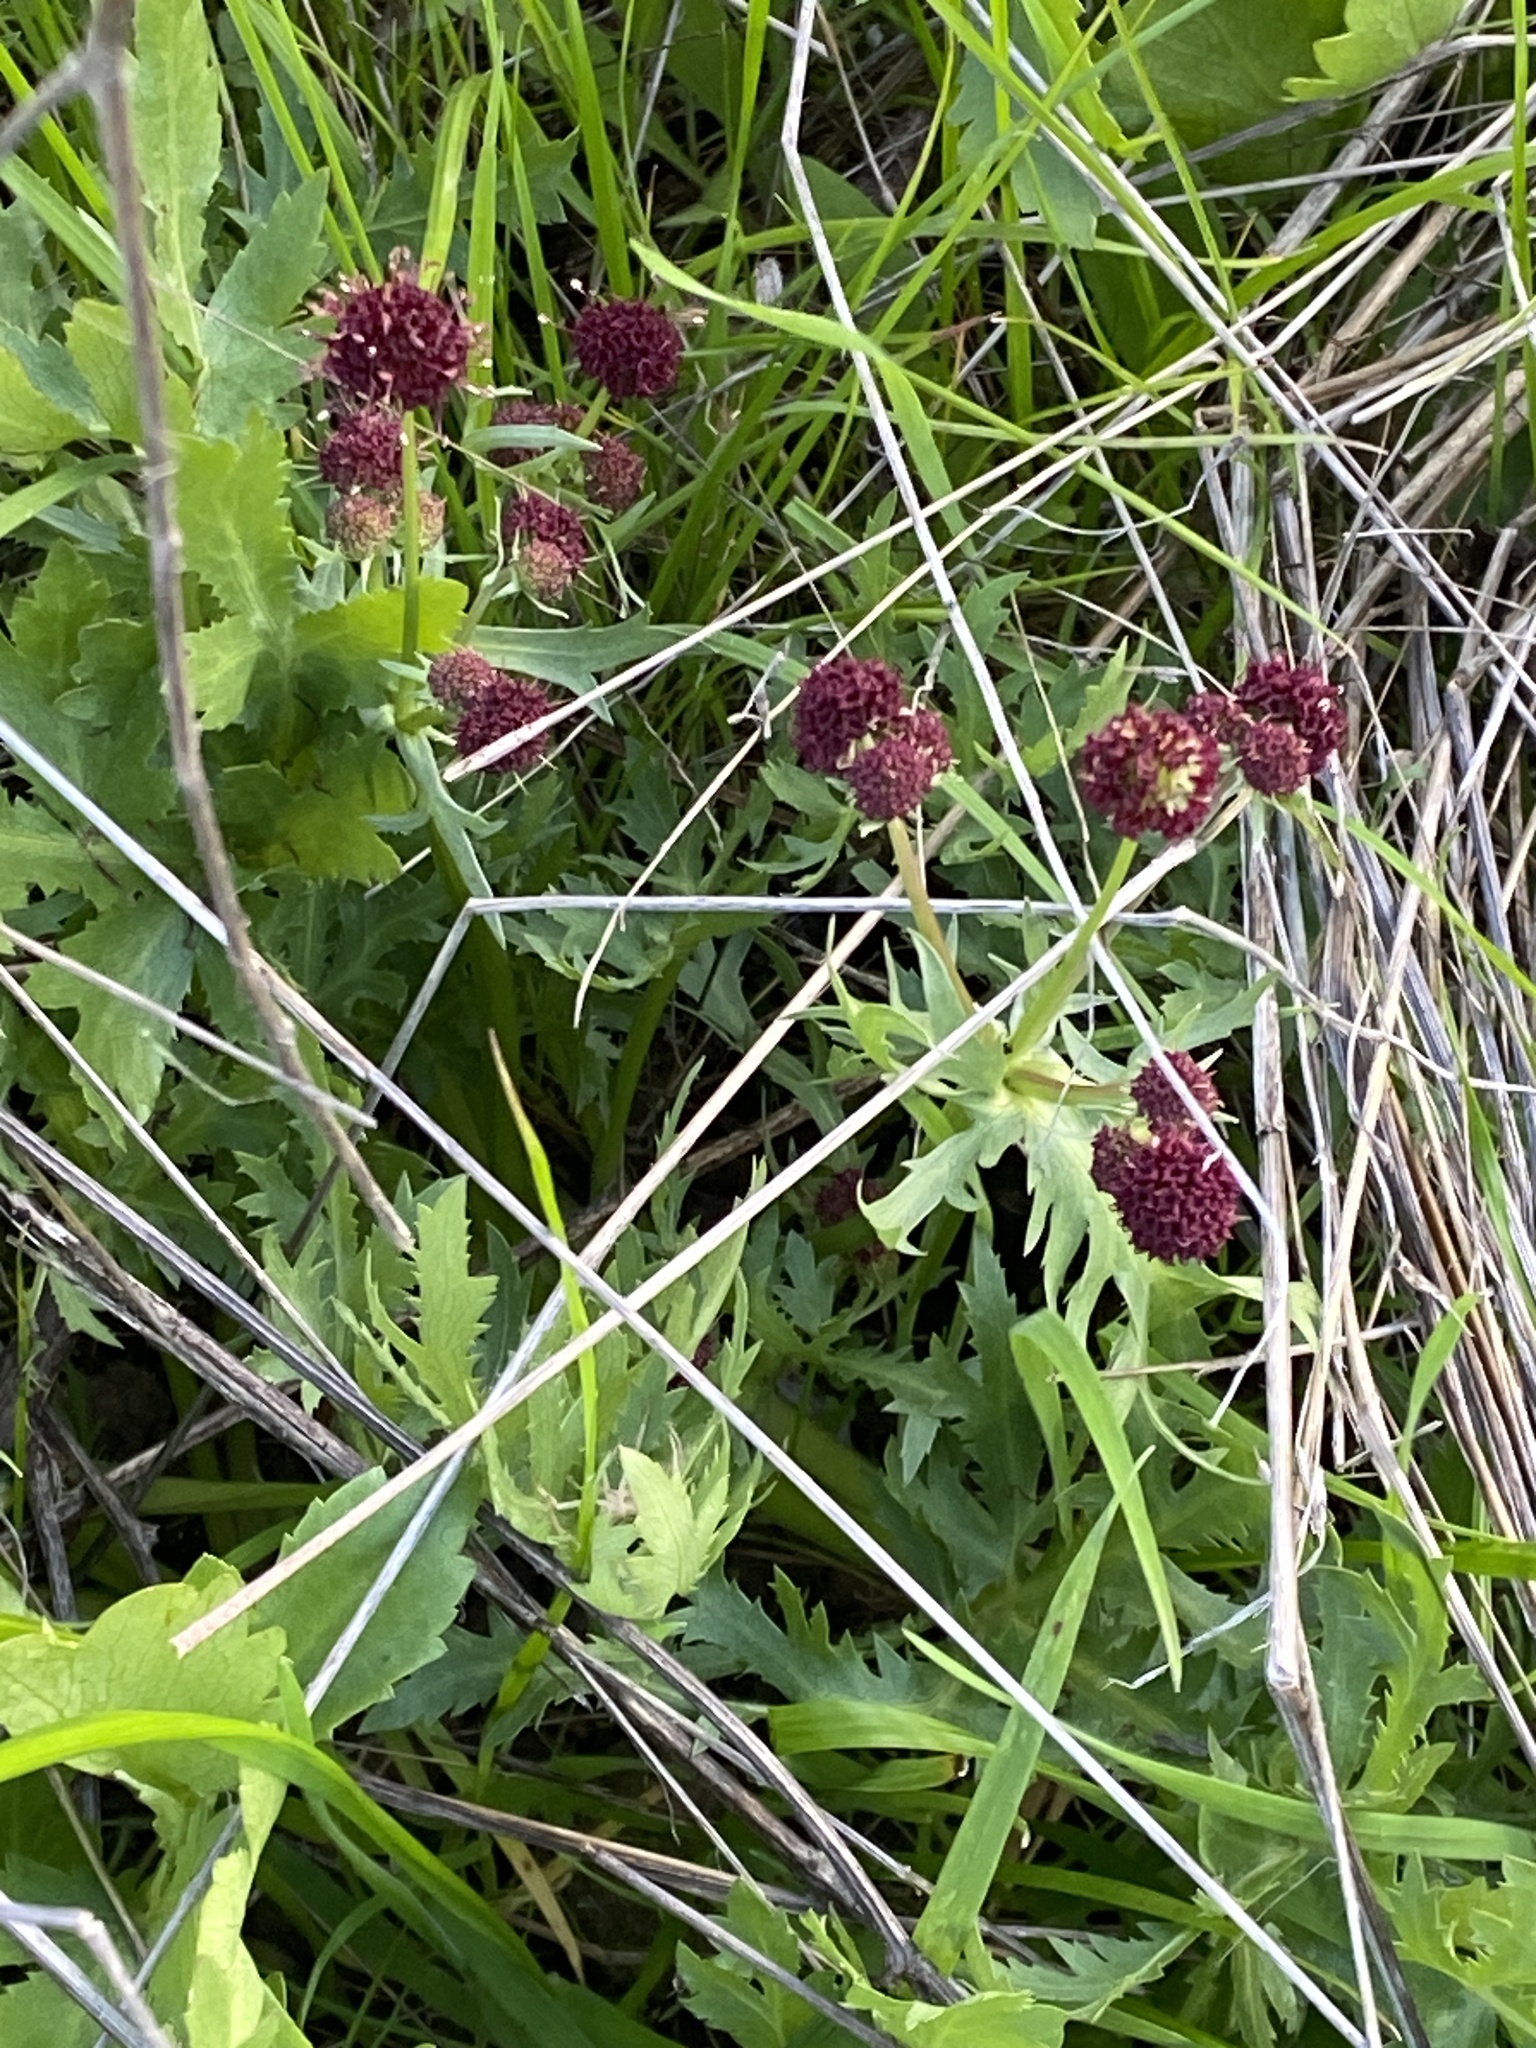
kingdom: Plantae
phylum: Tracheophyta
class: Magnoliopsida
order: Apiales
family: Apiaceae
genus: Sanicula
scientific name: Sanicula bipinnatifida
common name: Shoe-buttons
